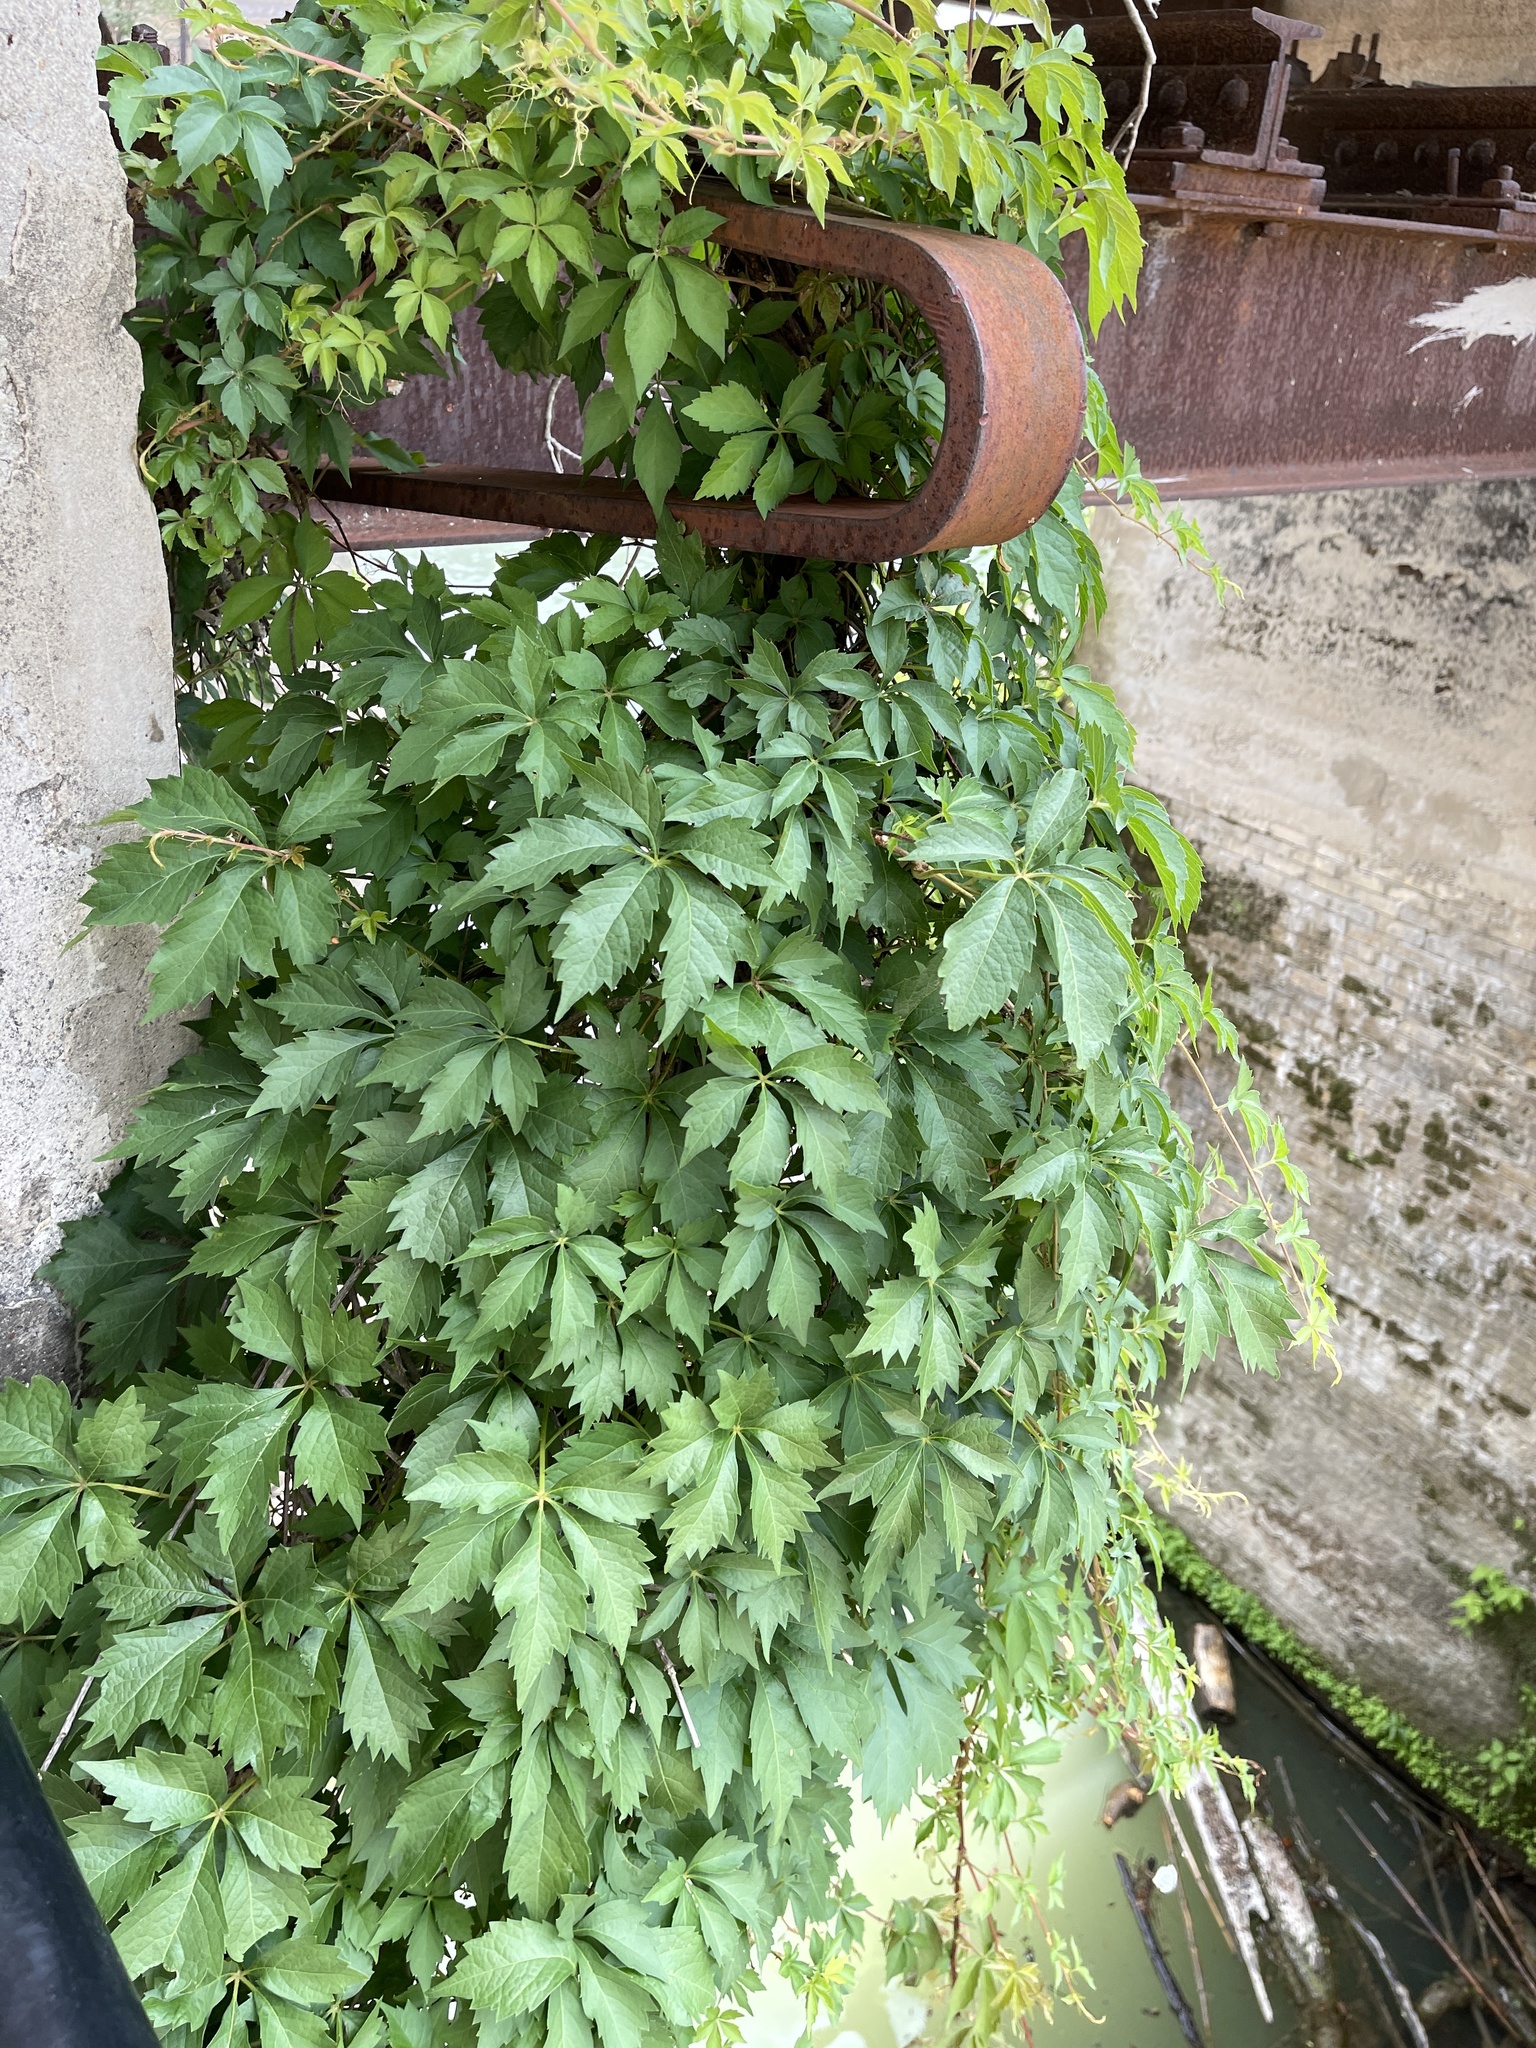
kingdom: Plantae
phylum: Tracheophyta
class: Magnoliopsida
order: Vitales
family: Vitaceae
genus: Parthenocissus
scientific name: Parthenocissus quinquefolia
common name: Virginia-creeper
